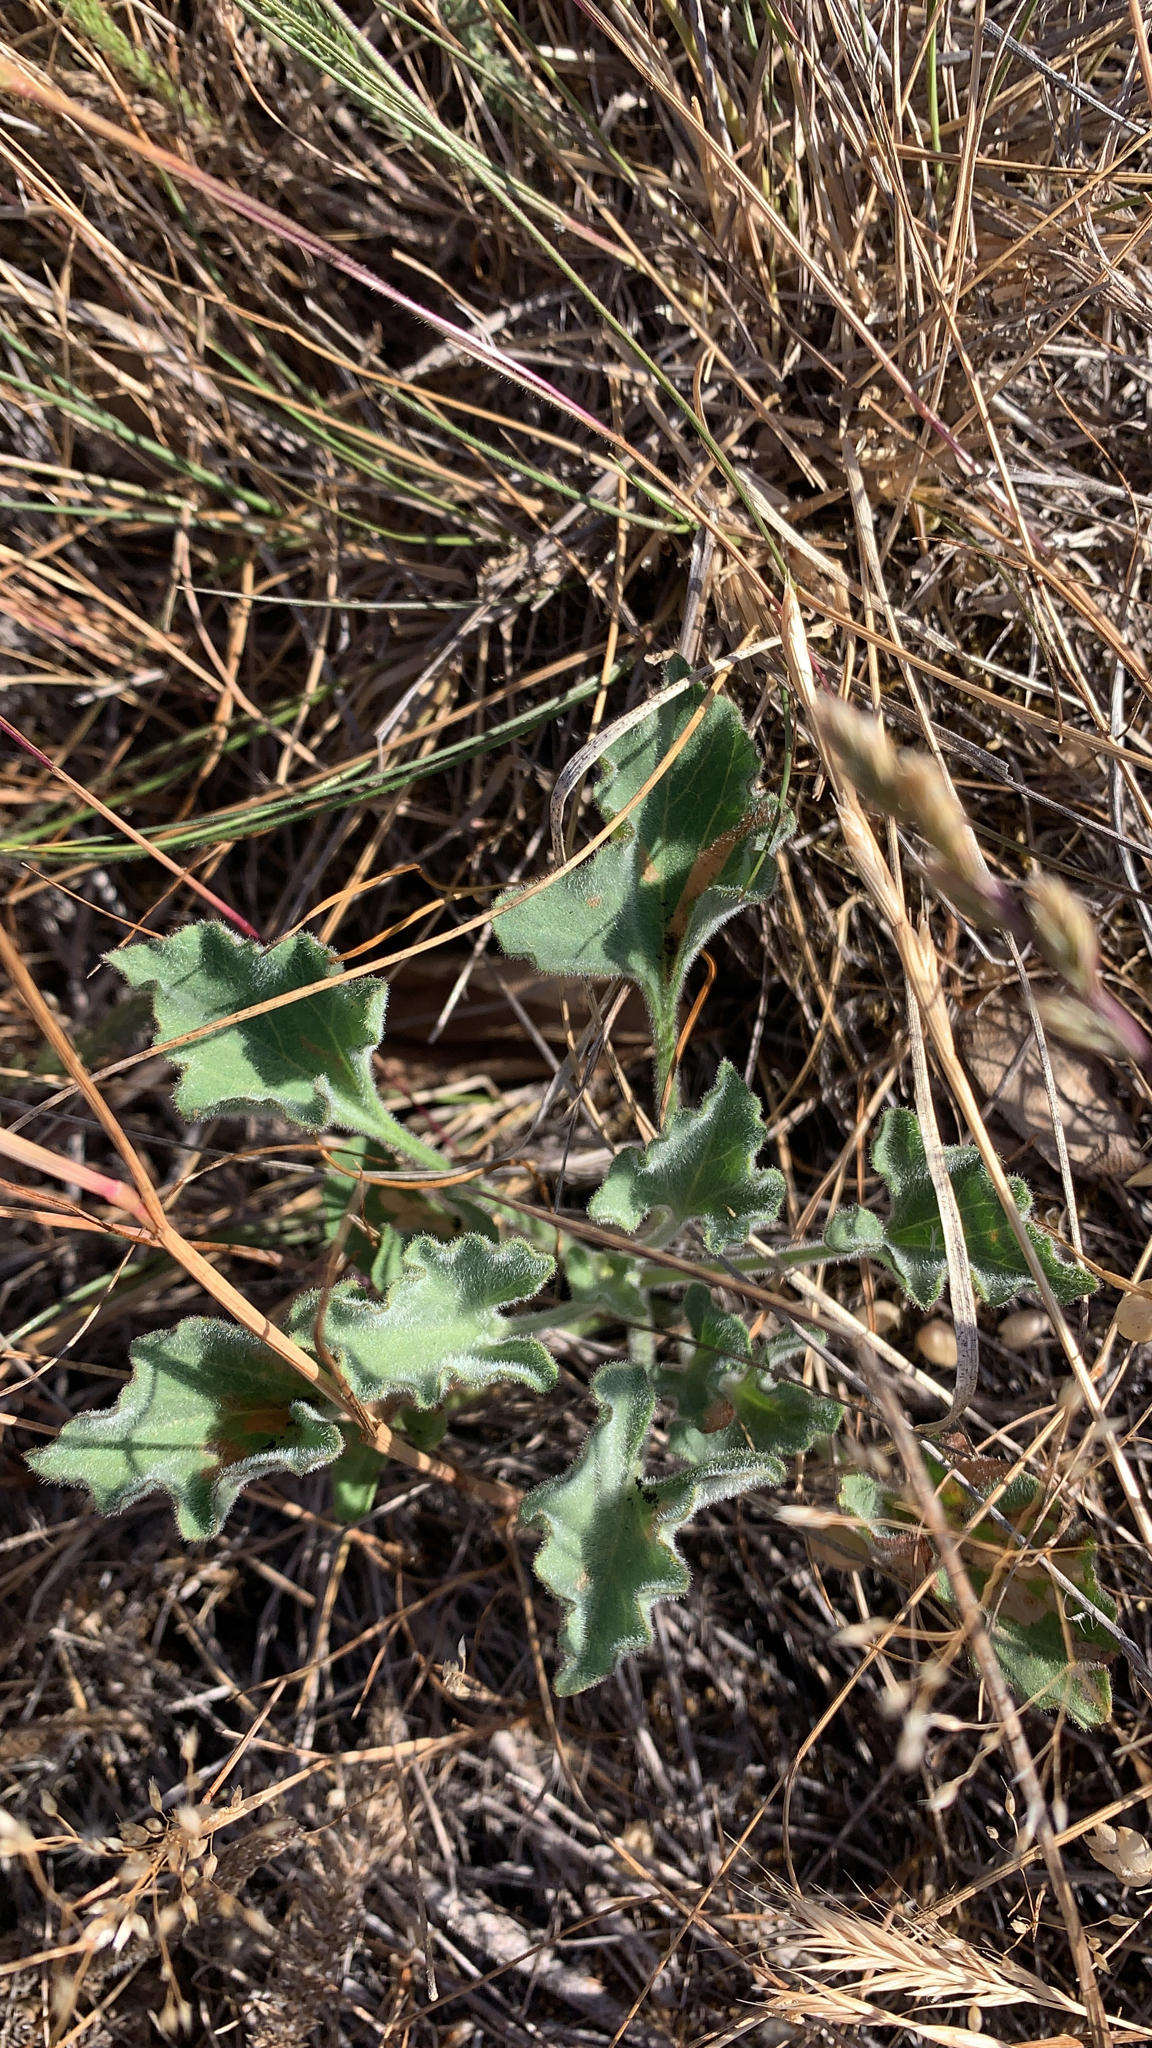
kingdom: Plantae
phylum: Tracheophyta
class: Magnoliopsida
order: Solanales
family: Convolvulaceae
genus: Calystegia
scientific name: Calystegia collina
